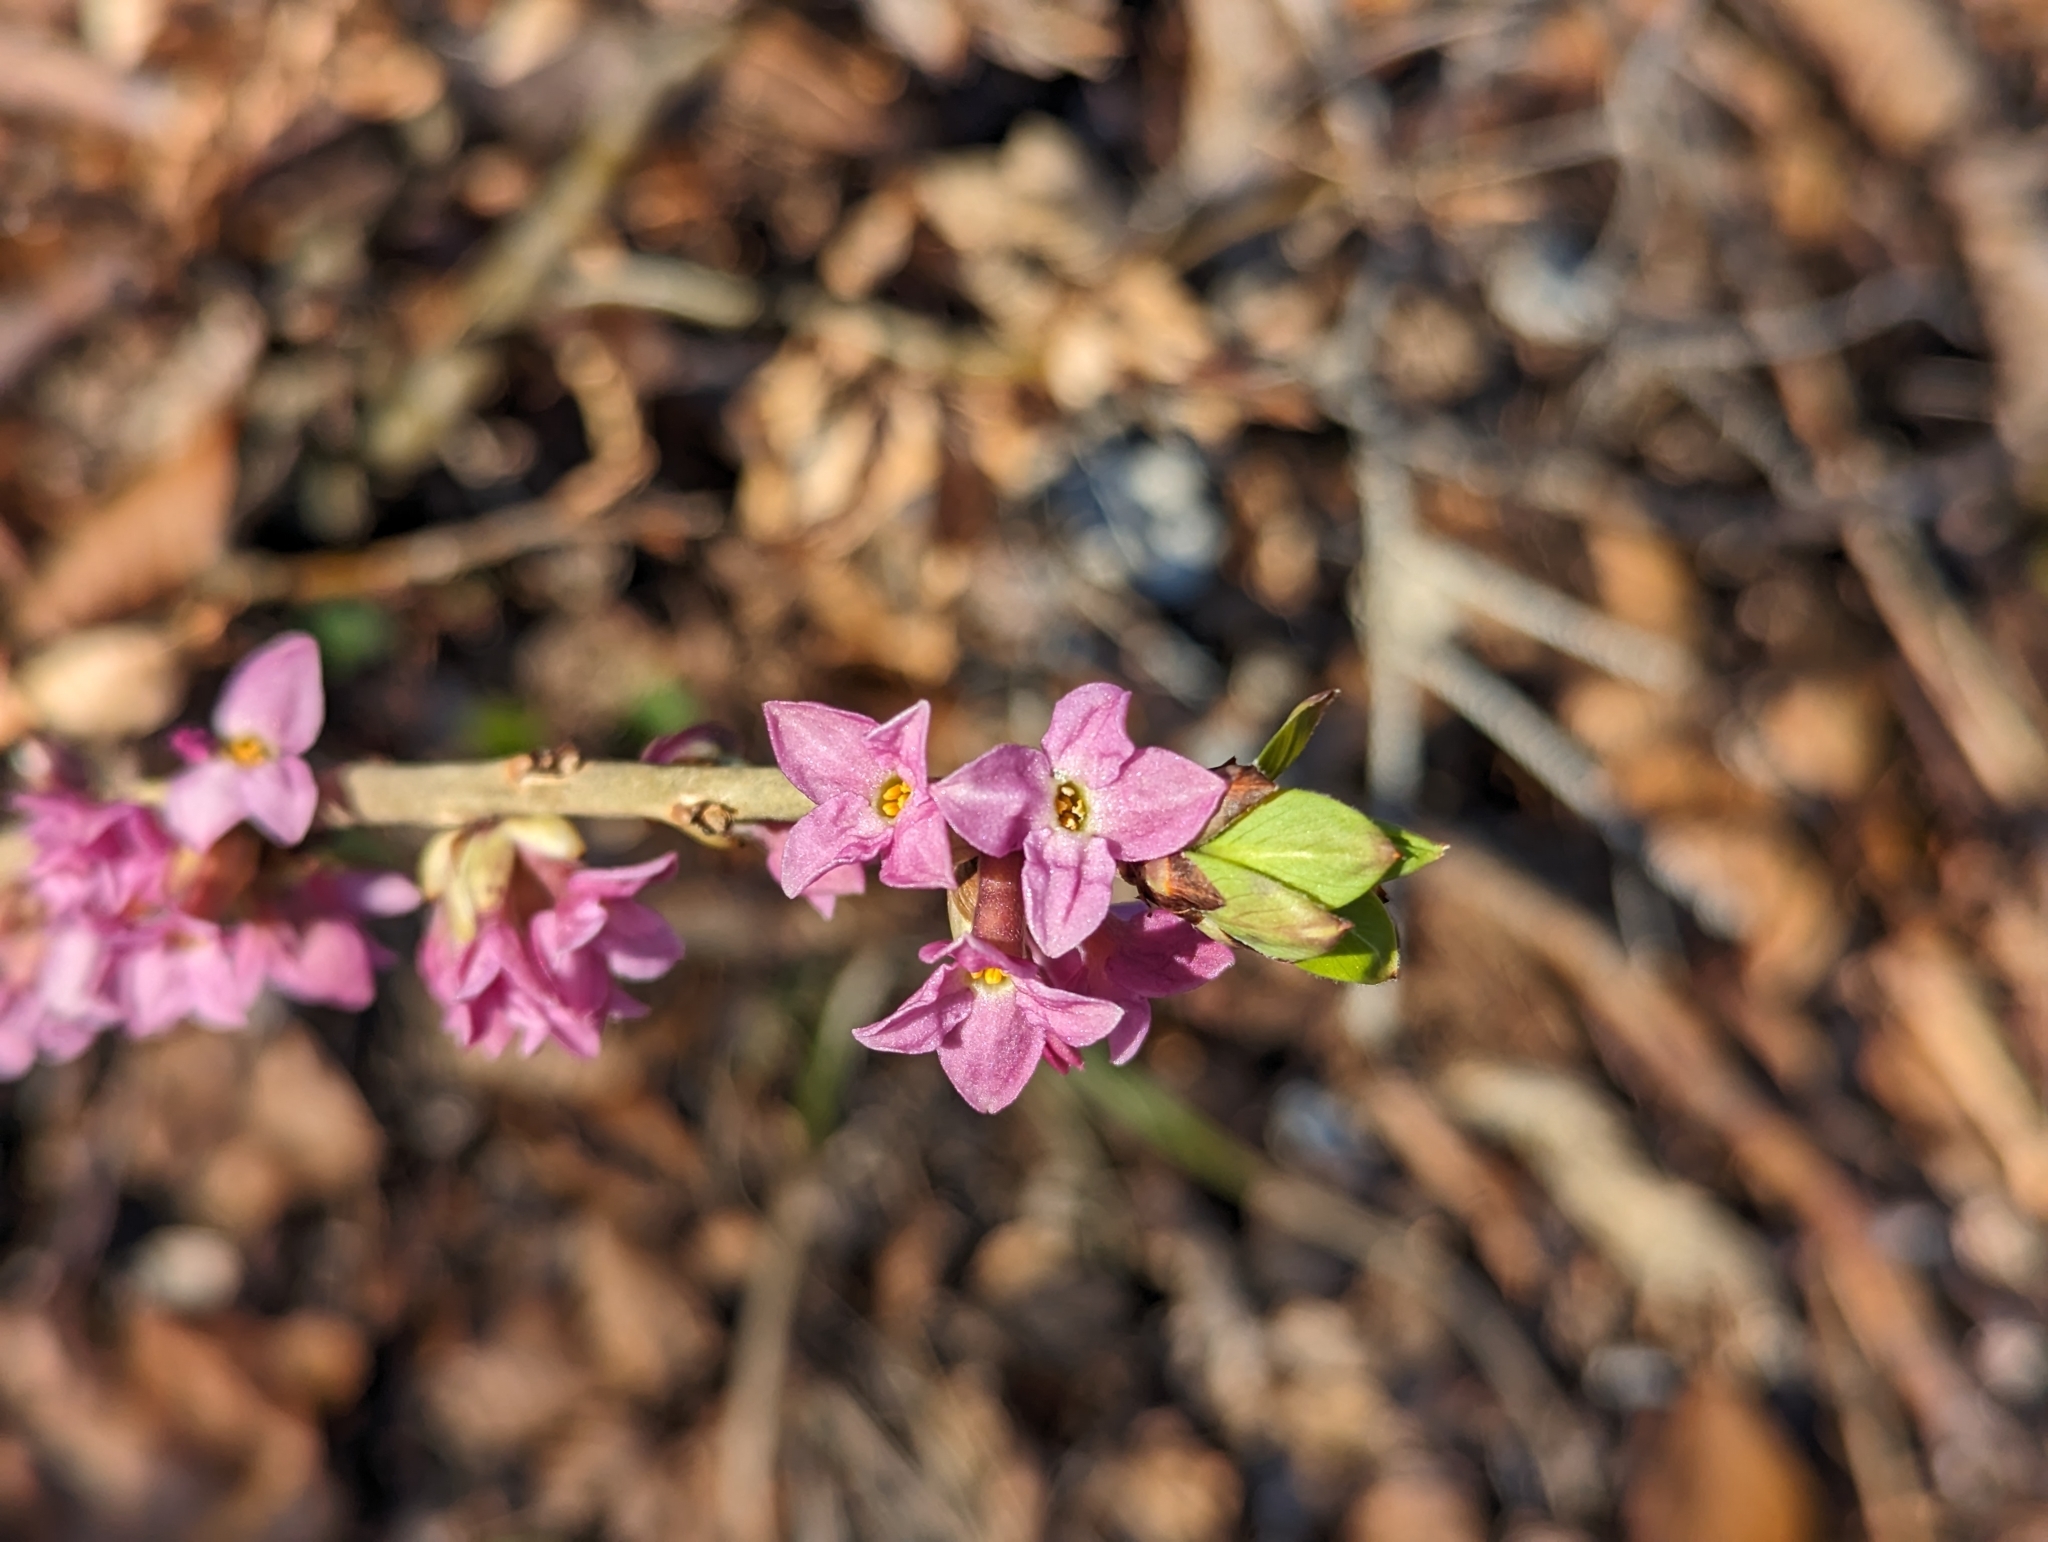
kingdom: Plantae
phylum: Tracheophyta
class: Magnoliopsida
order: Malvales
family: Thymelaeaceae
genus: Daphne
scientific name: Daphne mezereum
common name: Mezereon
